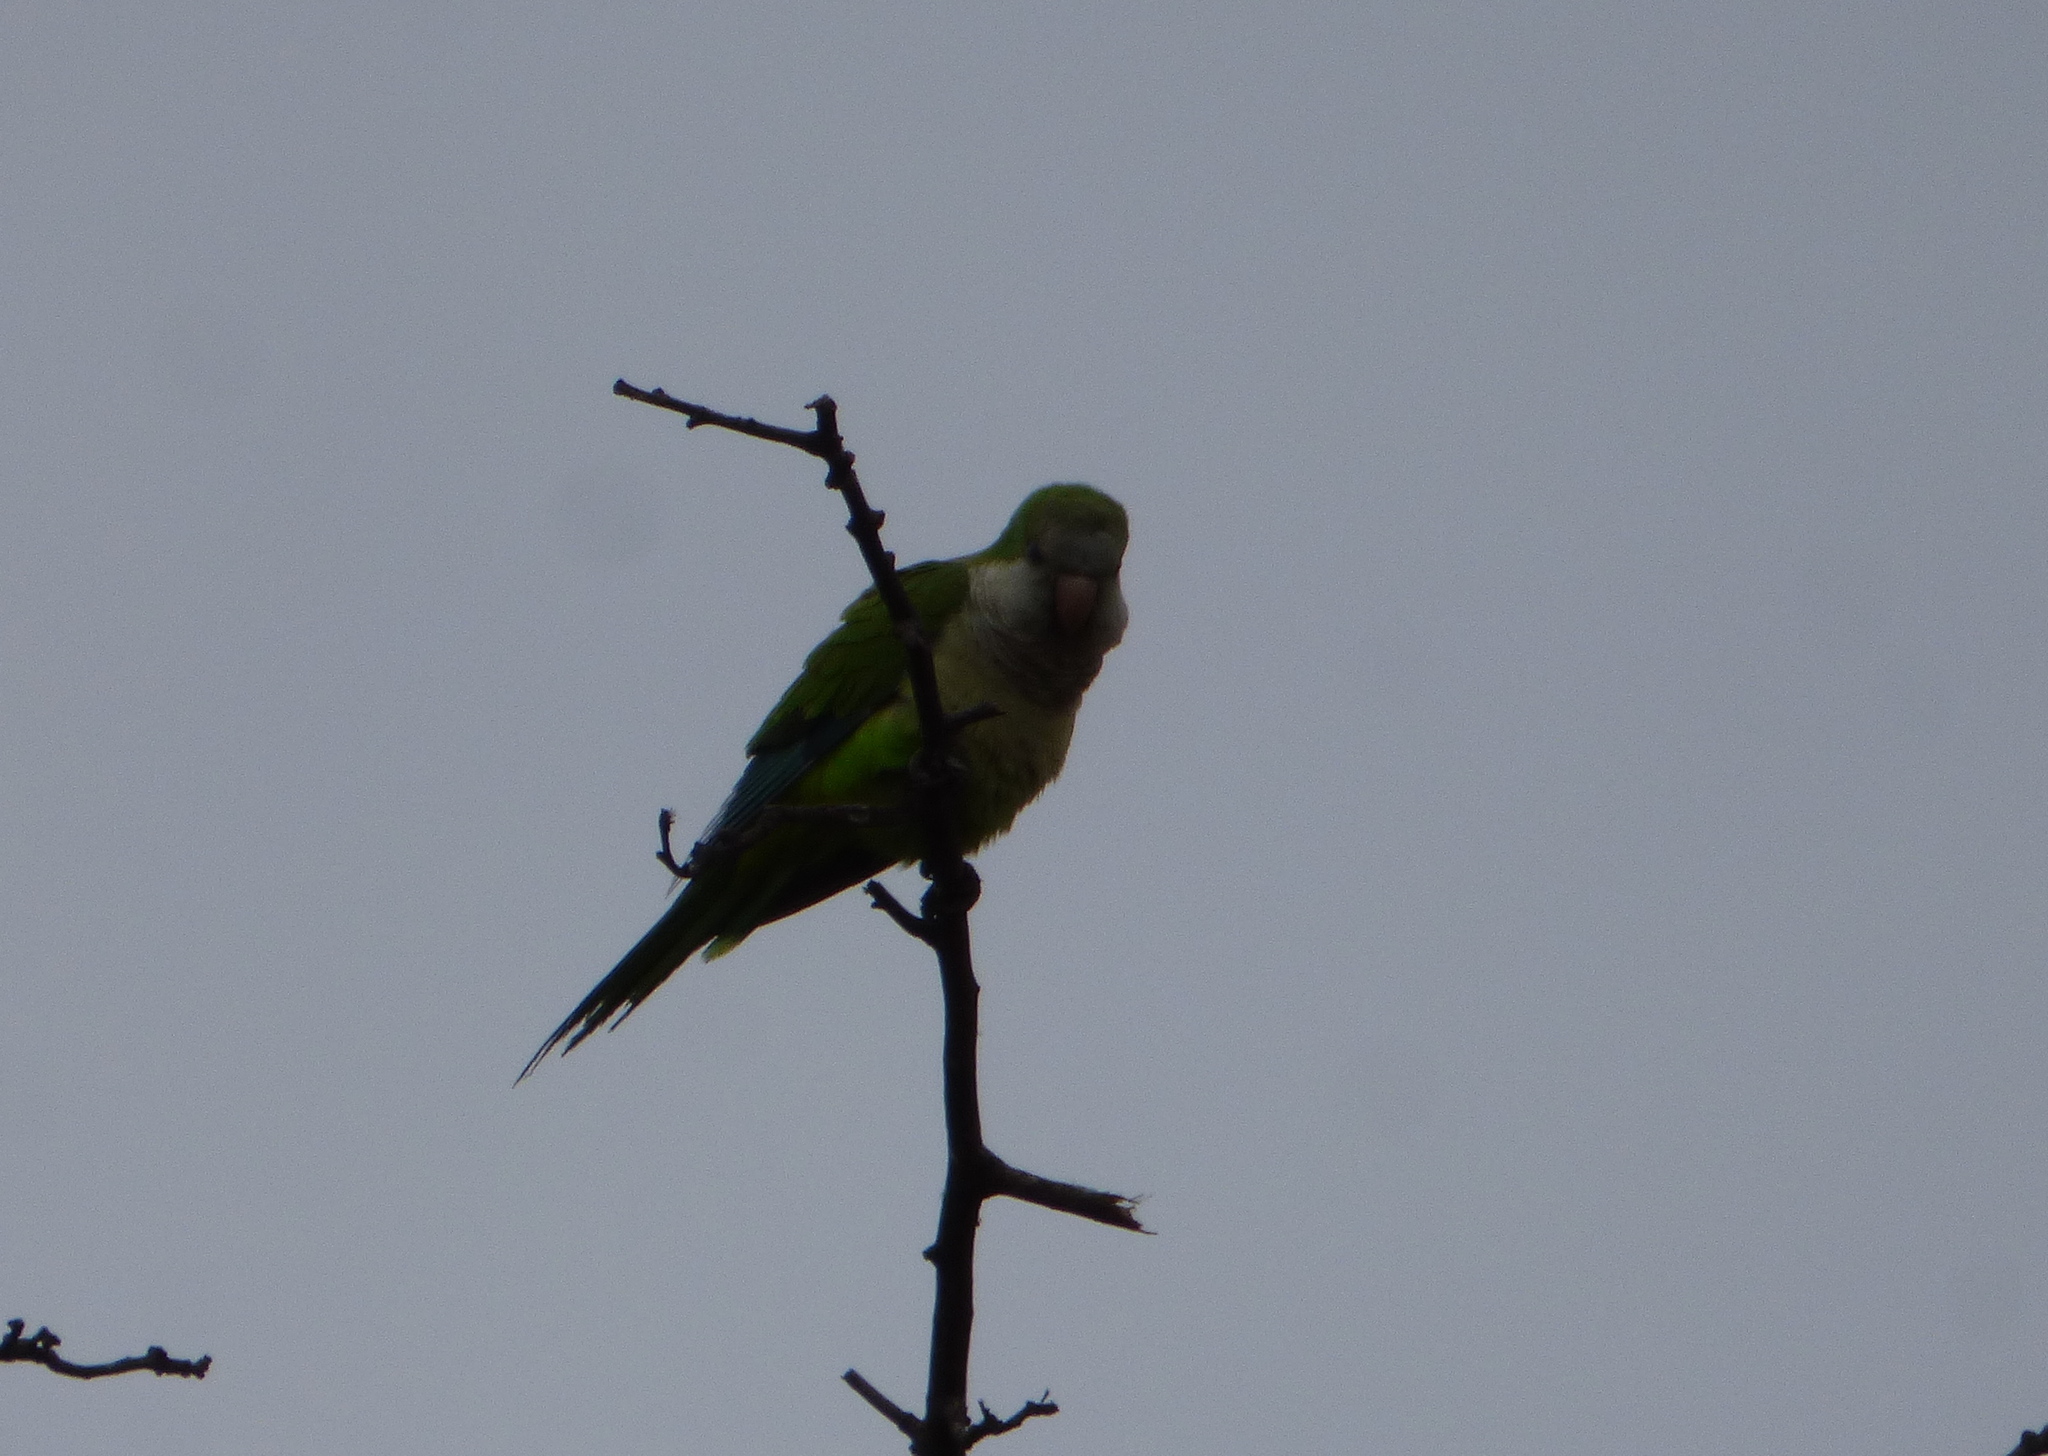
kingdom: Animalia
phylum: Chordata
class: Aves
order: Psittaciformes
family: Psittacidae
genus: Myiopsitta
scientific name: Myiopsitta monachus
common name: Monk parakeet
